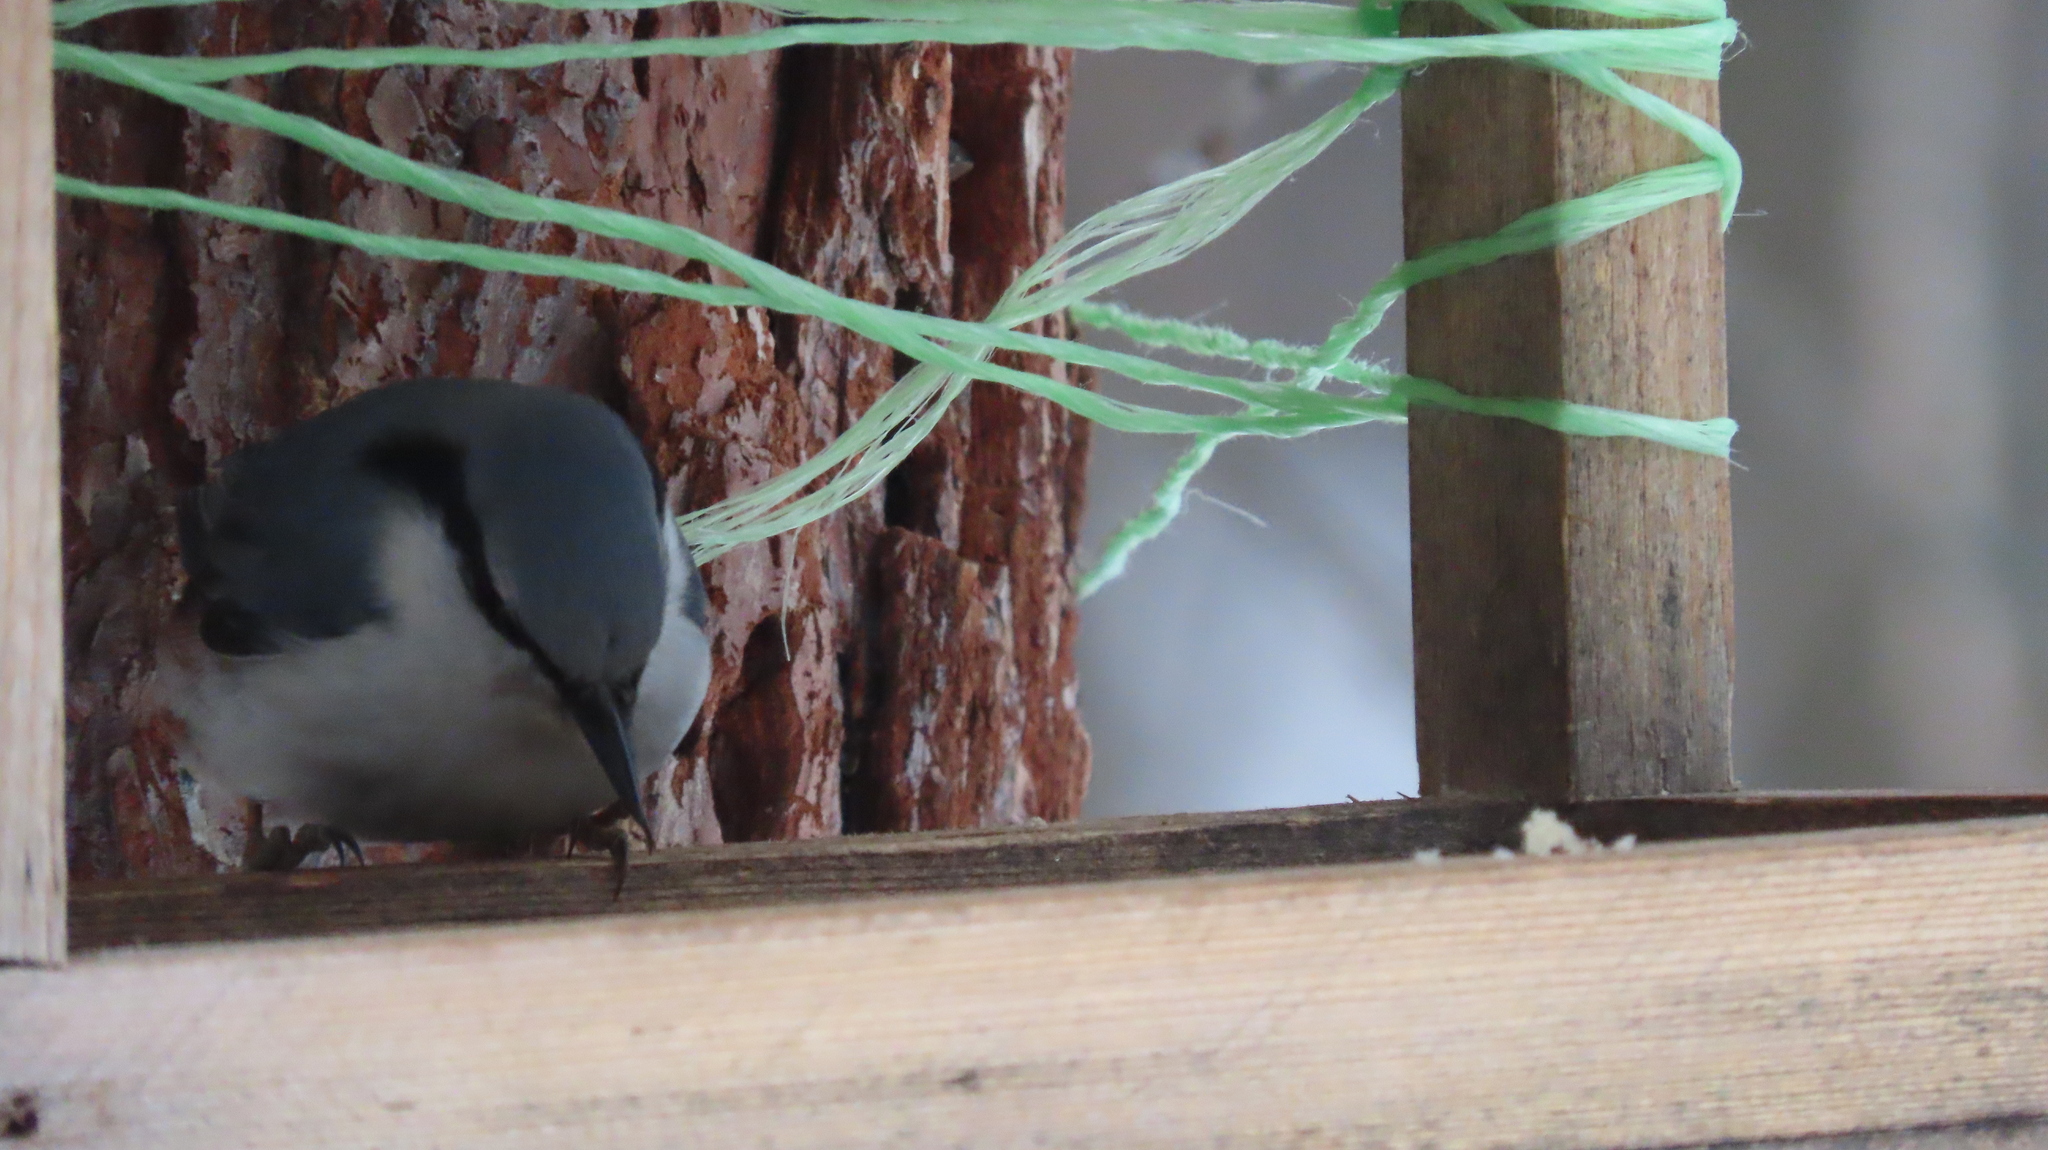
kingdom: Animalia
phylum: Chordata
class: Aves
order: Passeriformes
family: Sittidae
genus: Sitta
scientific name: Sitta europaea
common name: Eurasian nuthatch
